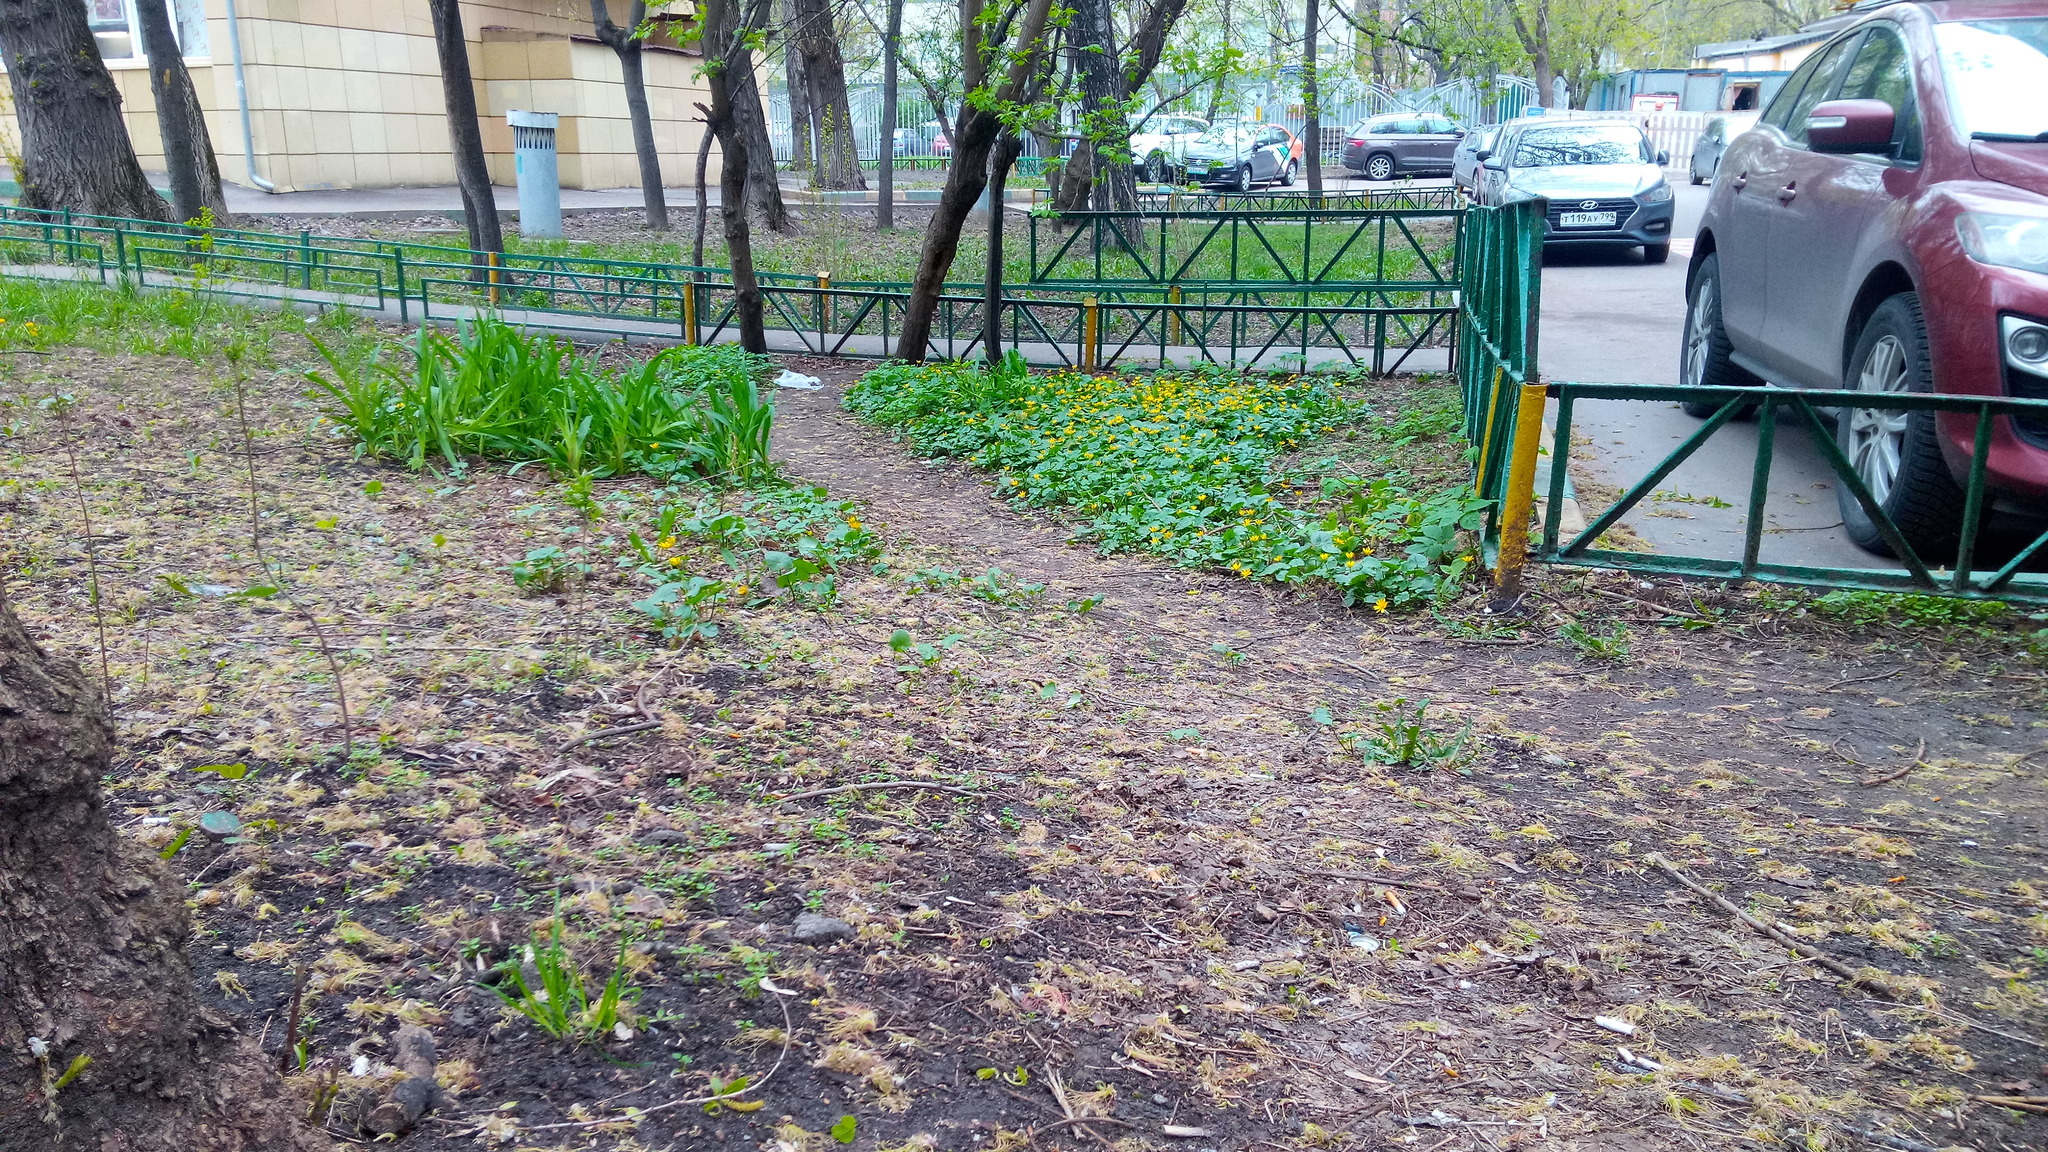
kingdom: Plantae
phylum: Tracheophyta
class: Magnoliopsida
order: Ranunculales
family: Ranunculaceae
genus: Ficaria
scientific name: Ficaria verna
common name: Lesser celandine
